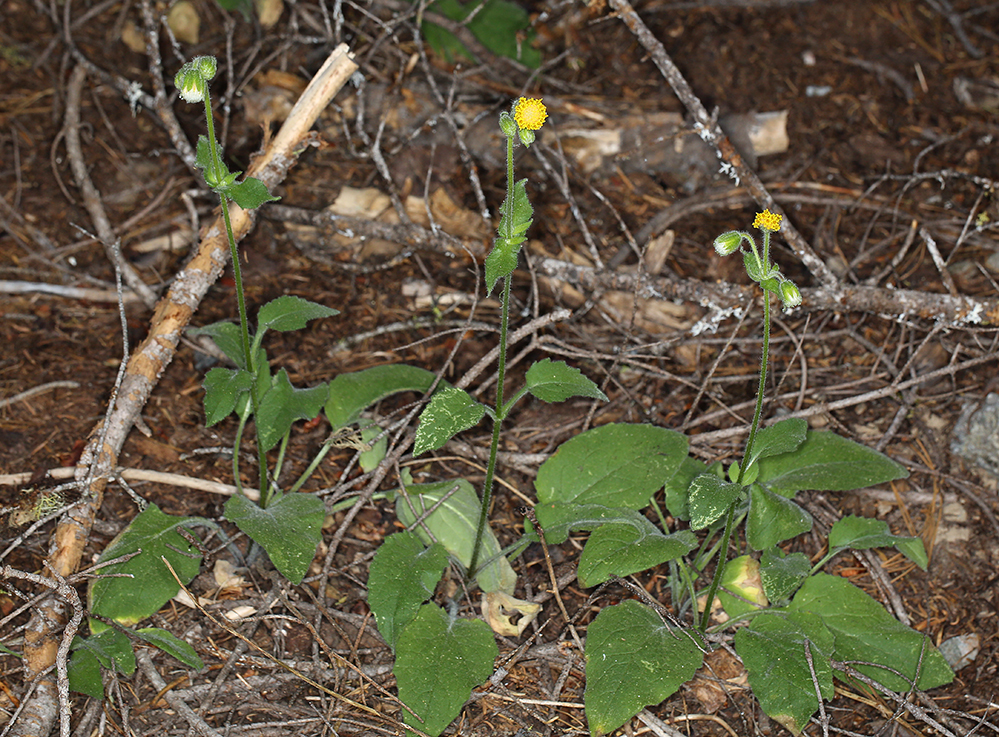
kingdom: Plantae
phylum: Tracheophyta
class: Magnoliopsida
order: Asterales
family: Asteraceae
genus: Arnica
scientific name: Arnica discoidea
